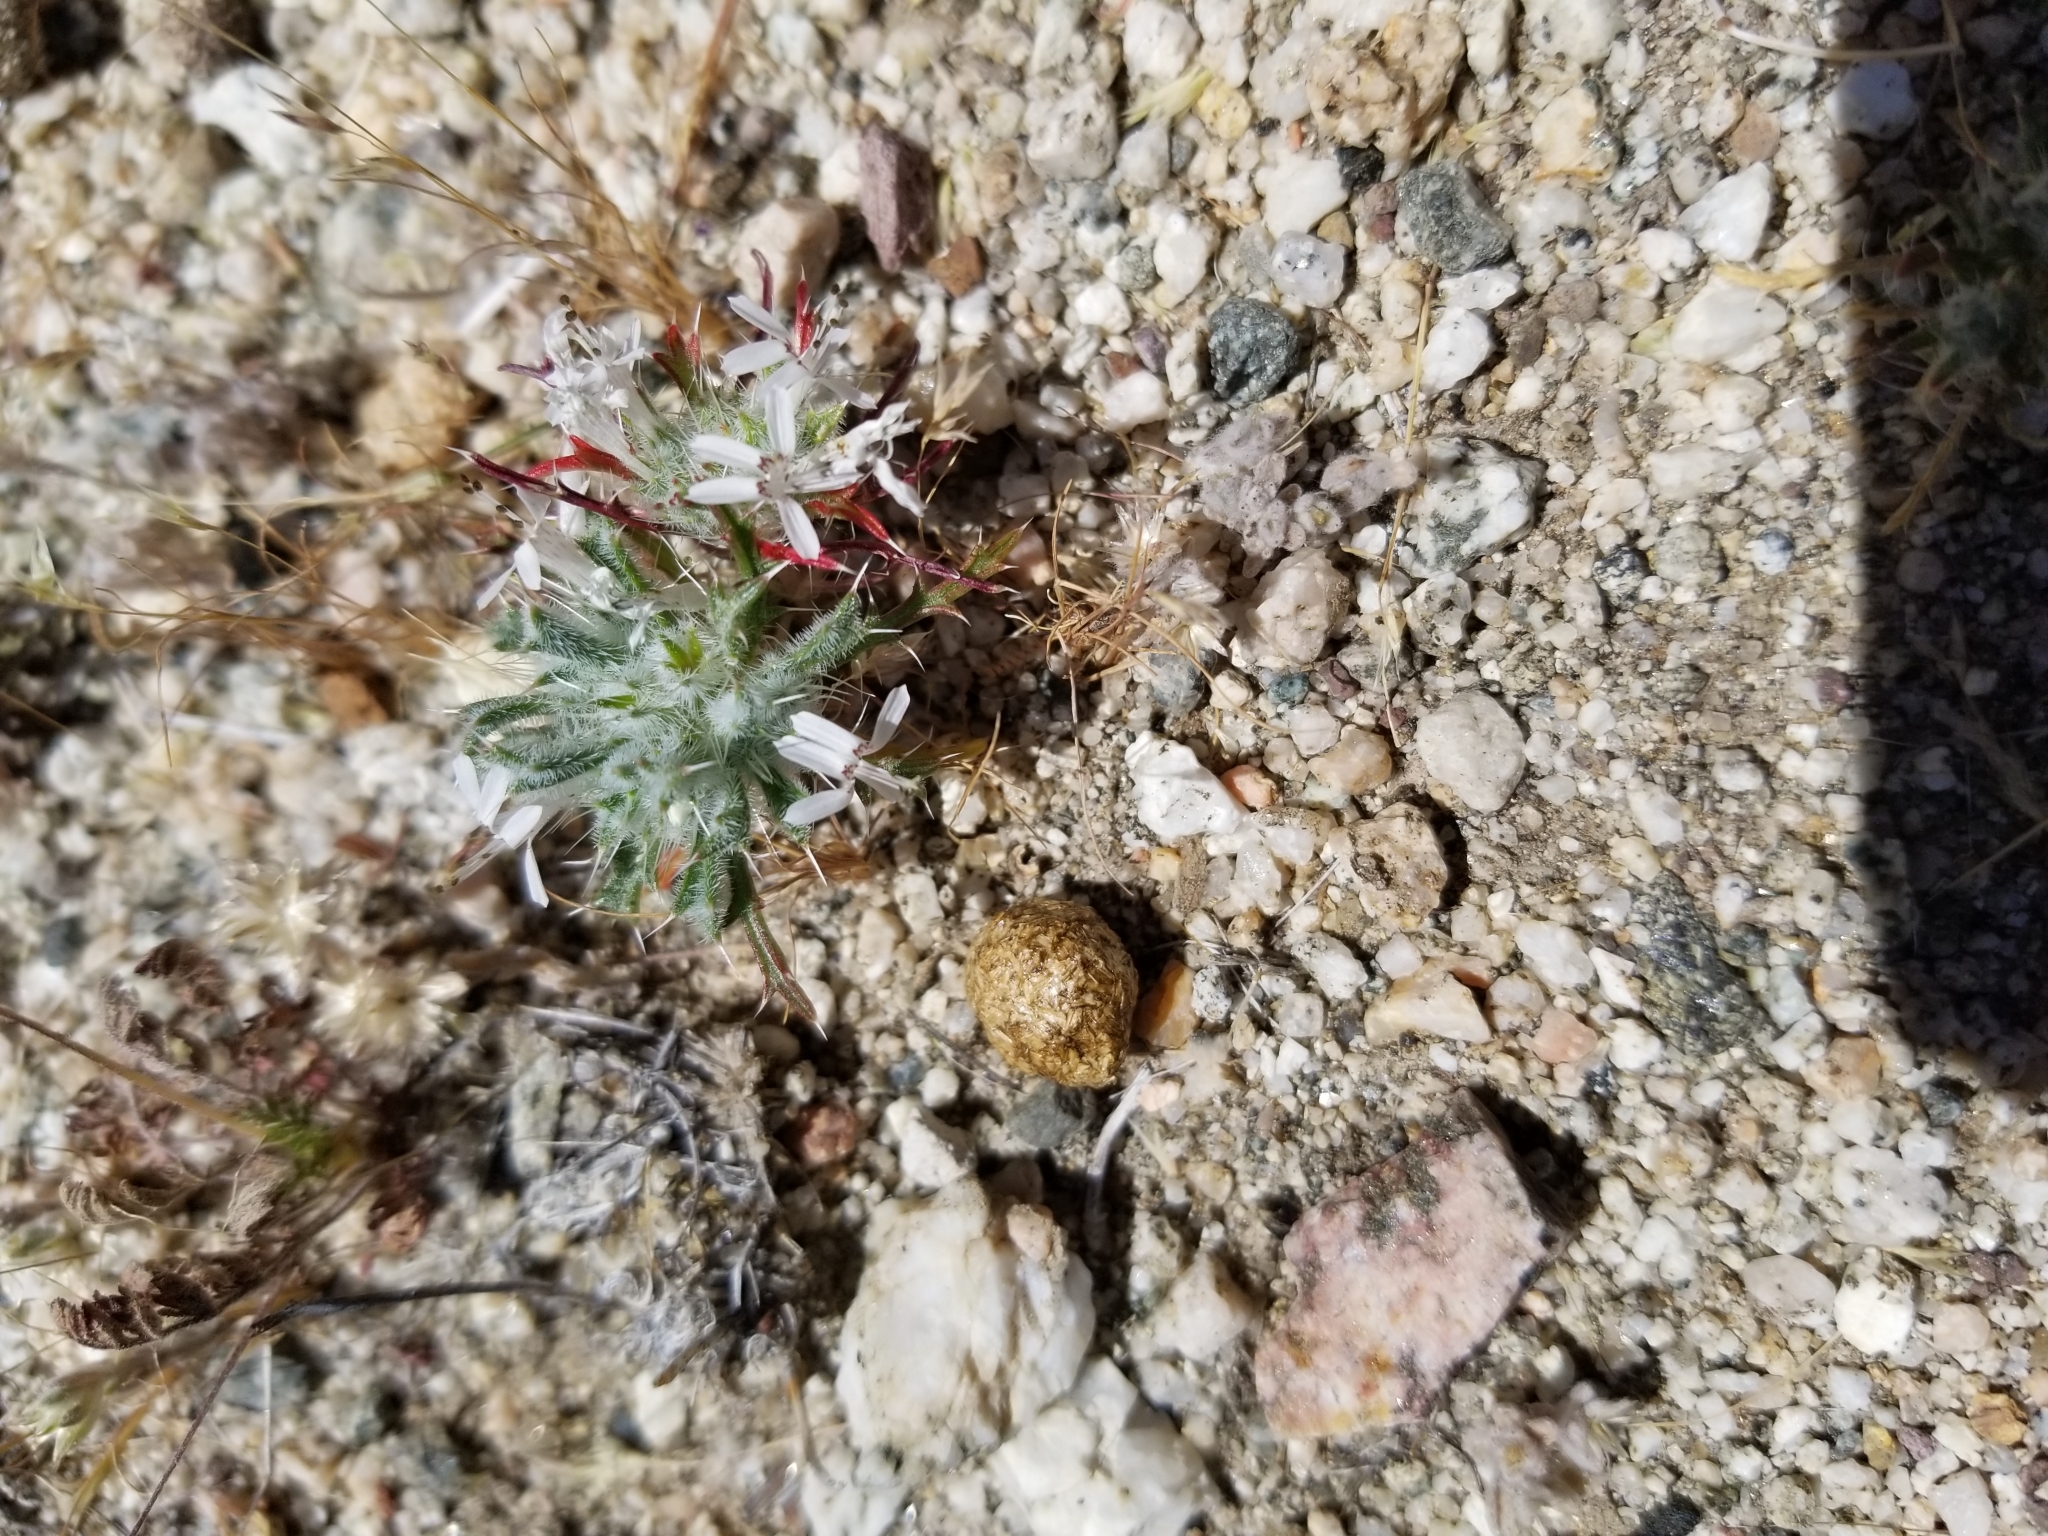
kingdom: Plantae
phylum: Tracheophyta
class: Magnoliopsida
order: Ericales
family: Polemoniaceae
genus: Loeseliastrum
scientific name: Loeseliastrum schottii
